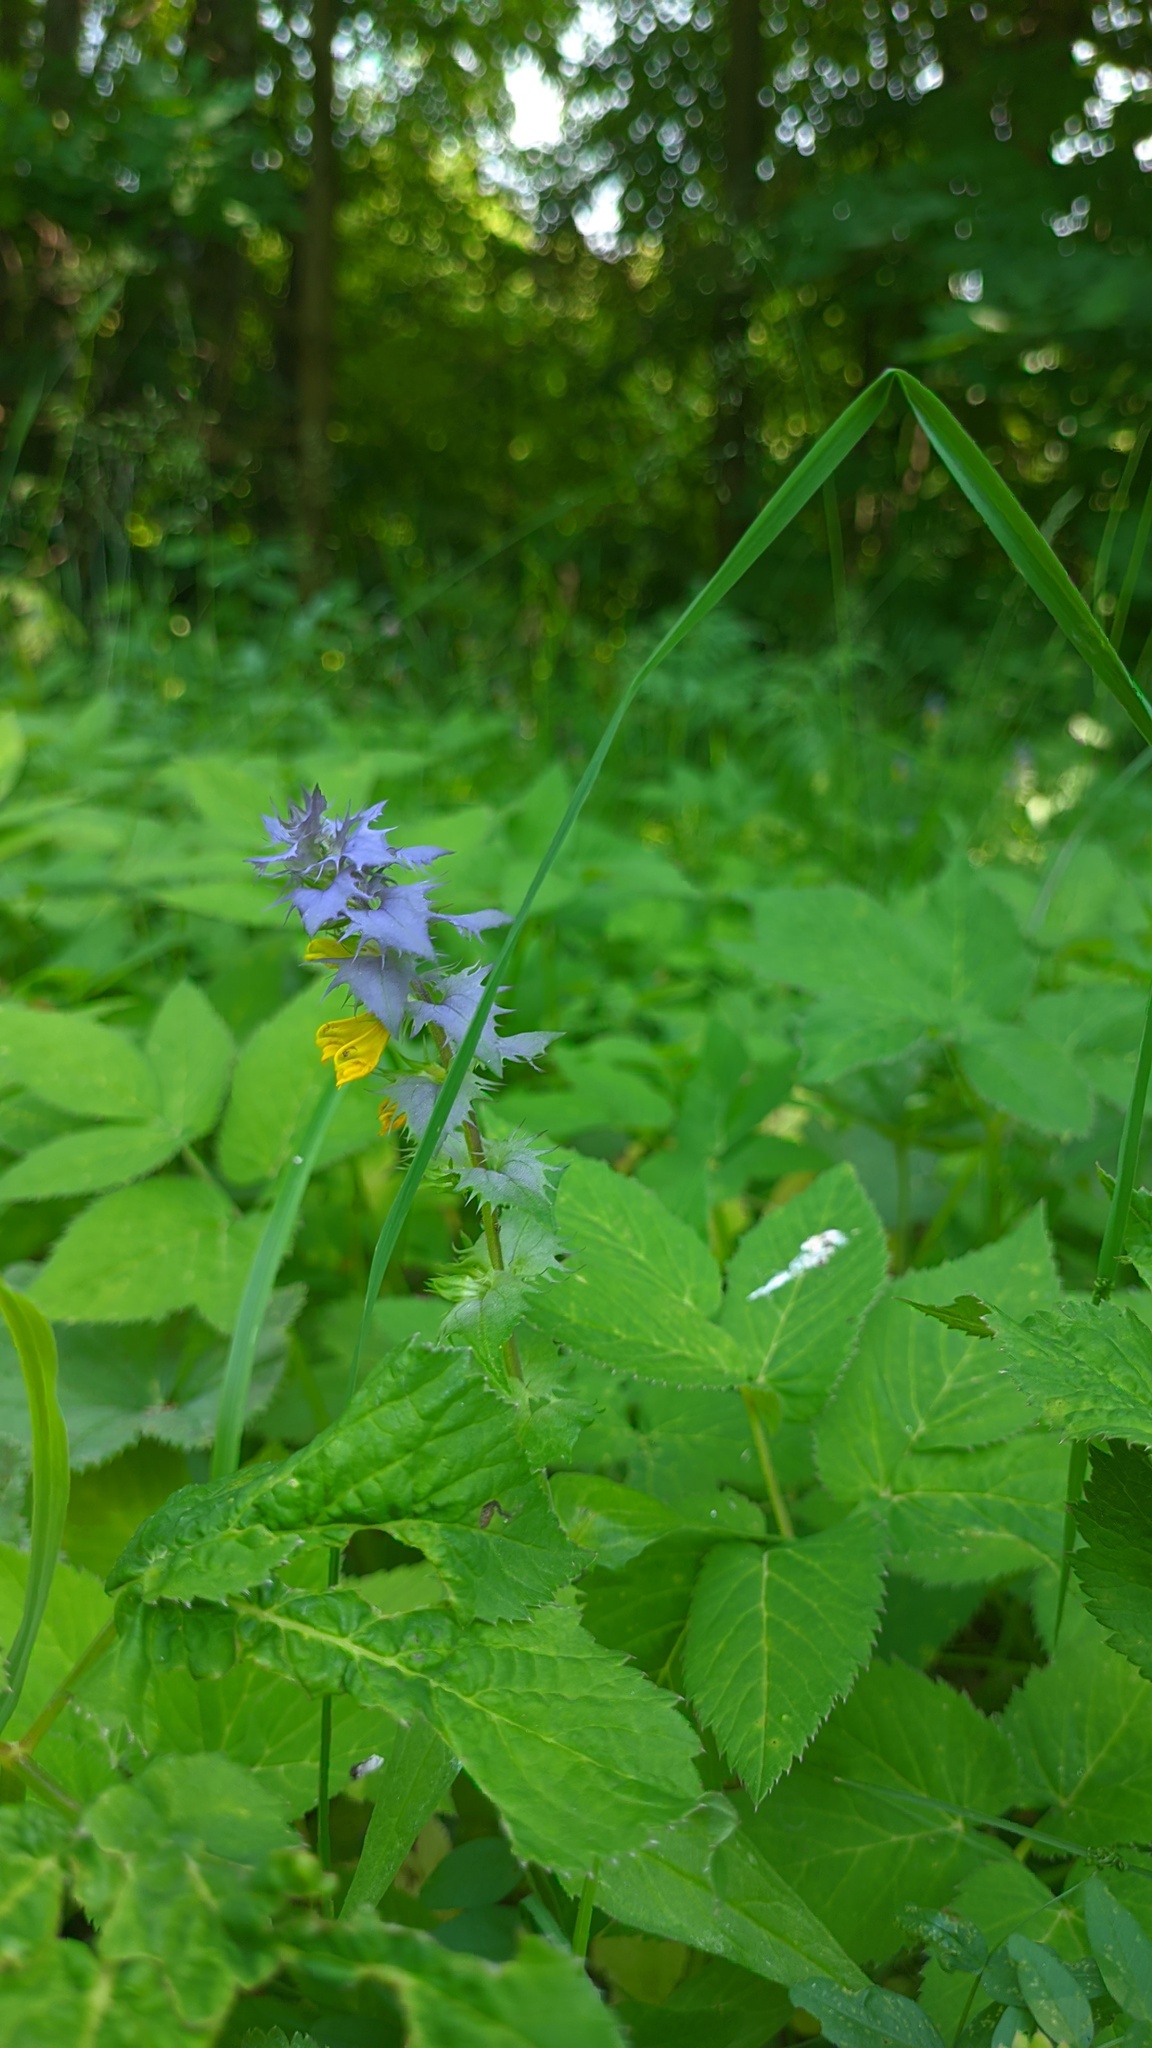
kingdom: Plantae
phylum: Tracheophyta
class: Magnoliopsida
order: Lamiales
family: Orobanchaceae
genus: Melampyrum
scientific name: Melampyrum nemorosum
